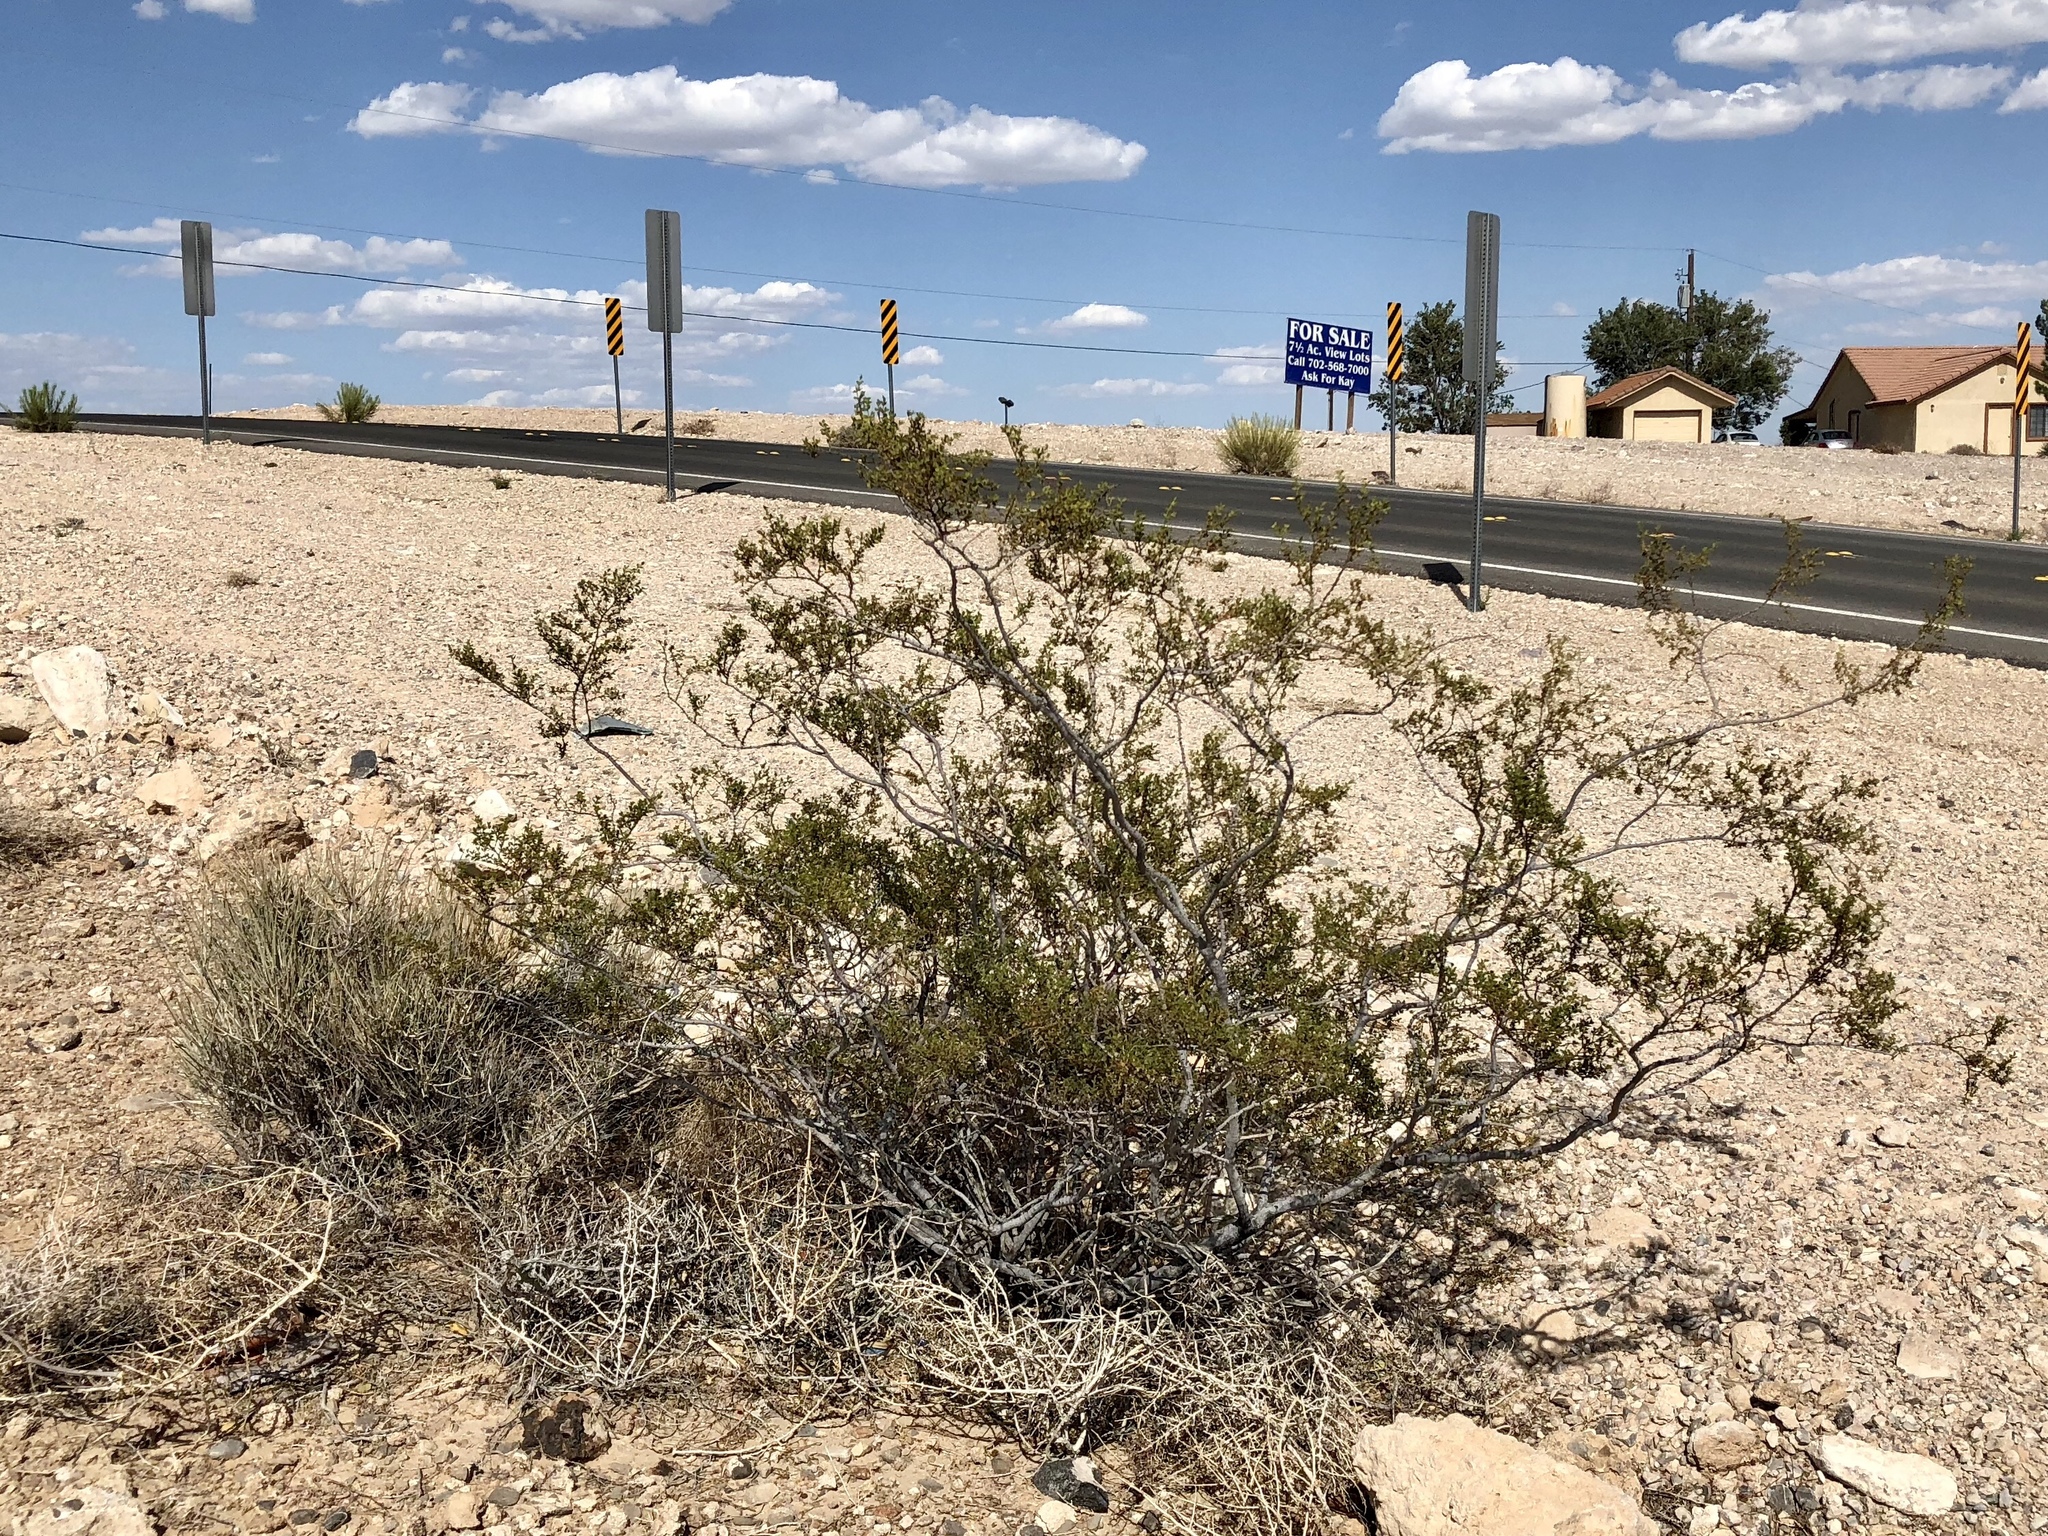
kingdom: Plantae
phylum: Tracheophyta
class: Magnoliopsida
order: Zygophyllales
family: Zygophyllaceae
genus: Larrea
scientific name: Larrea tridentata
